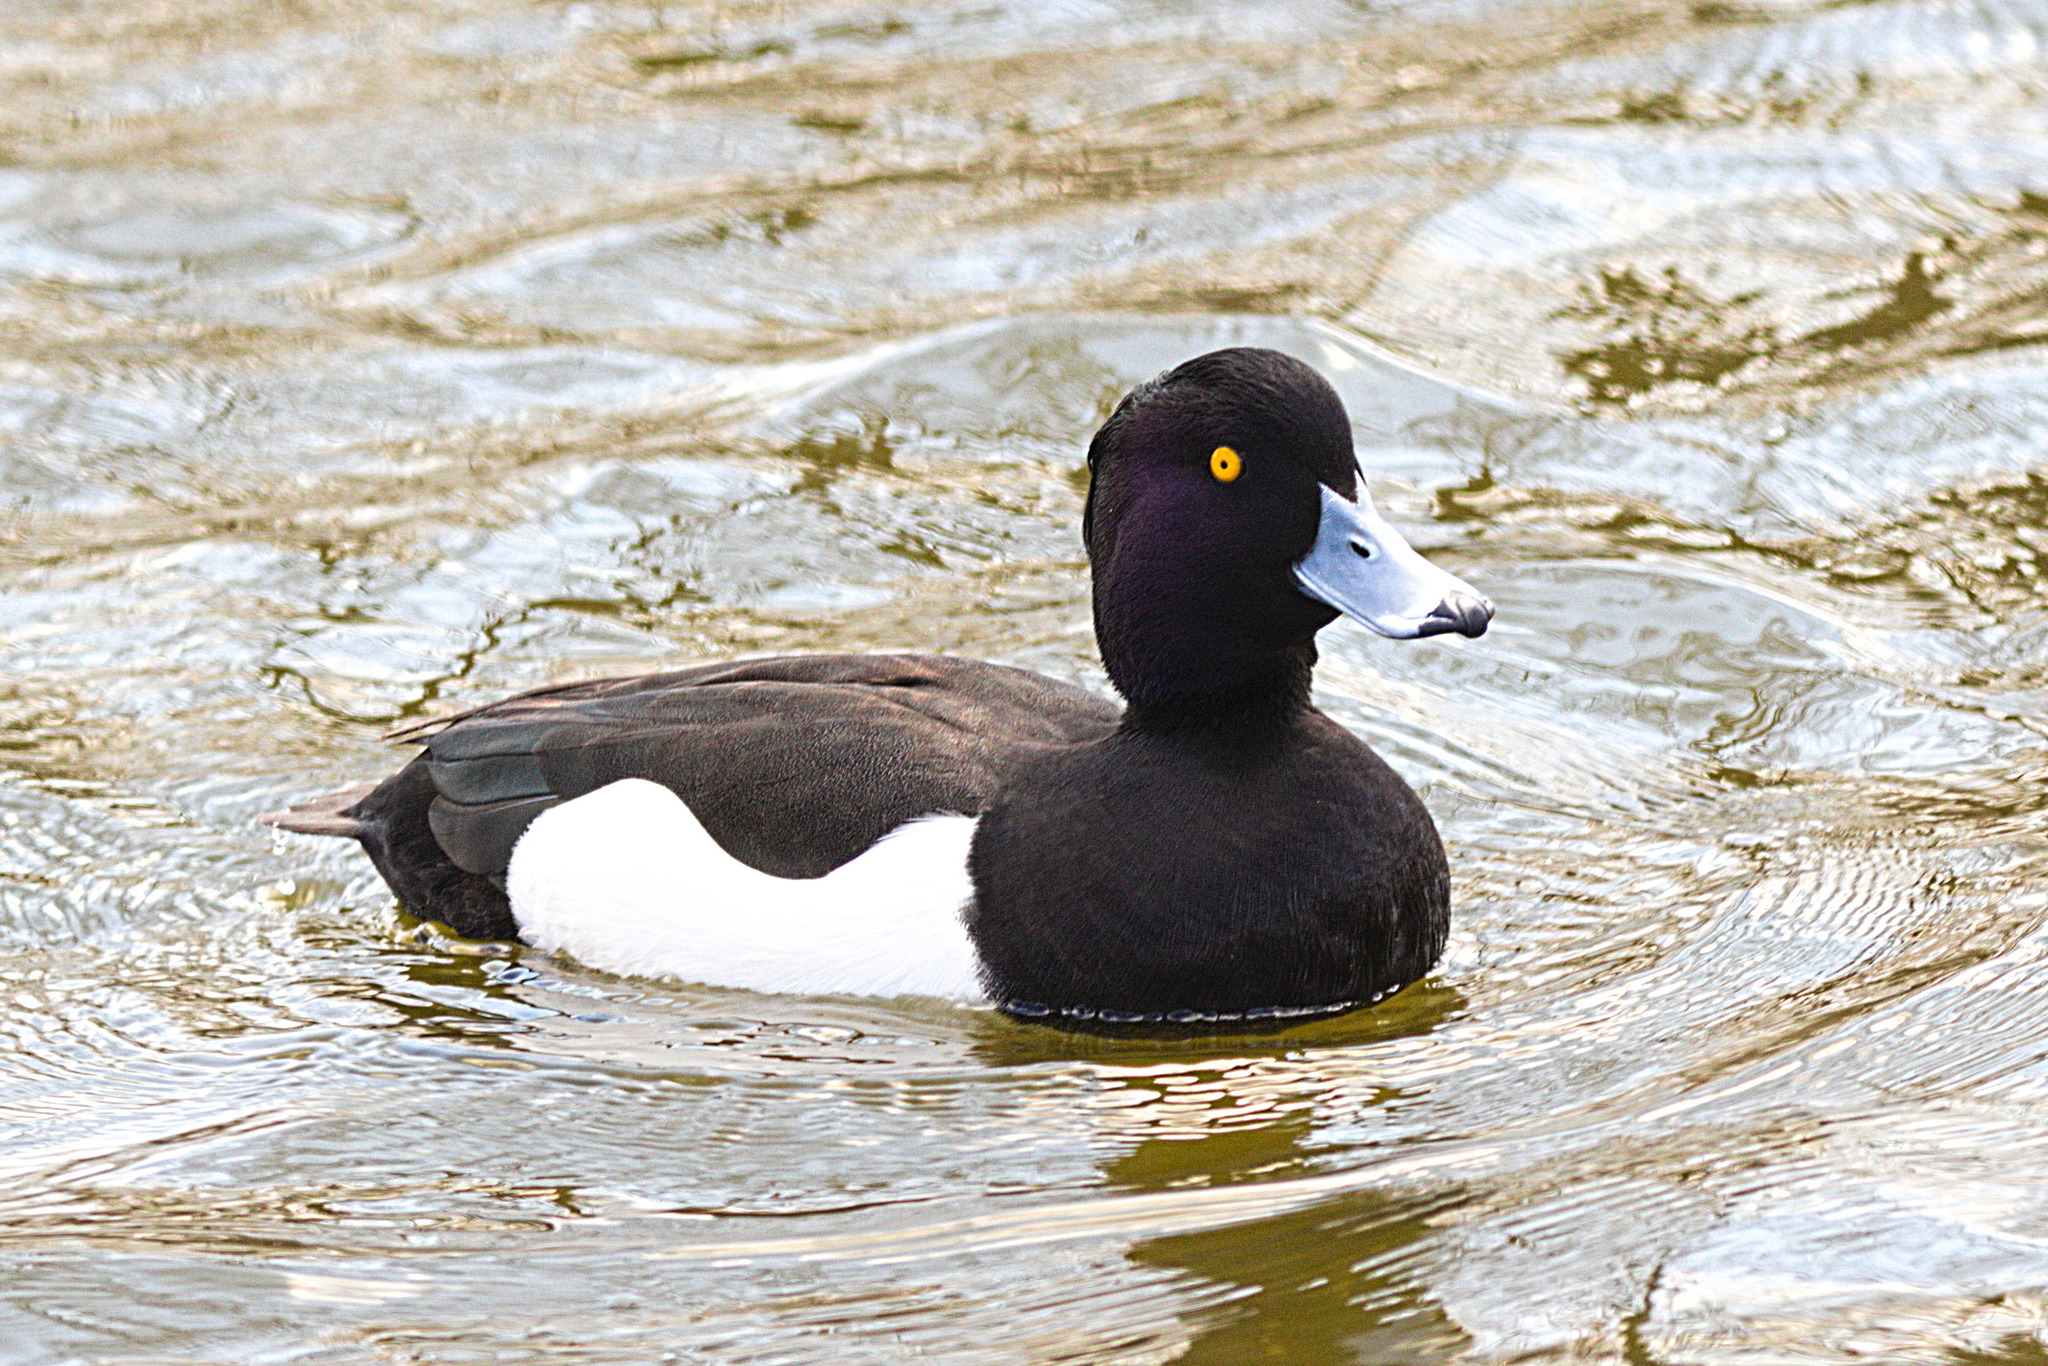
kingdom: Animalia
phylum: Chordata
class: Aves
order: Anseriformes
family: Anatidae
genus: Aythya
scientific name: Aythya fuligula
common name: Tufted duck
